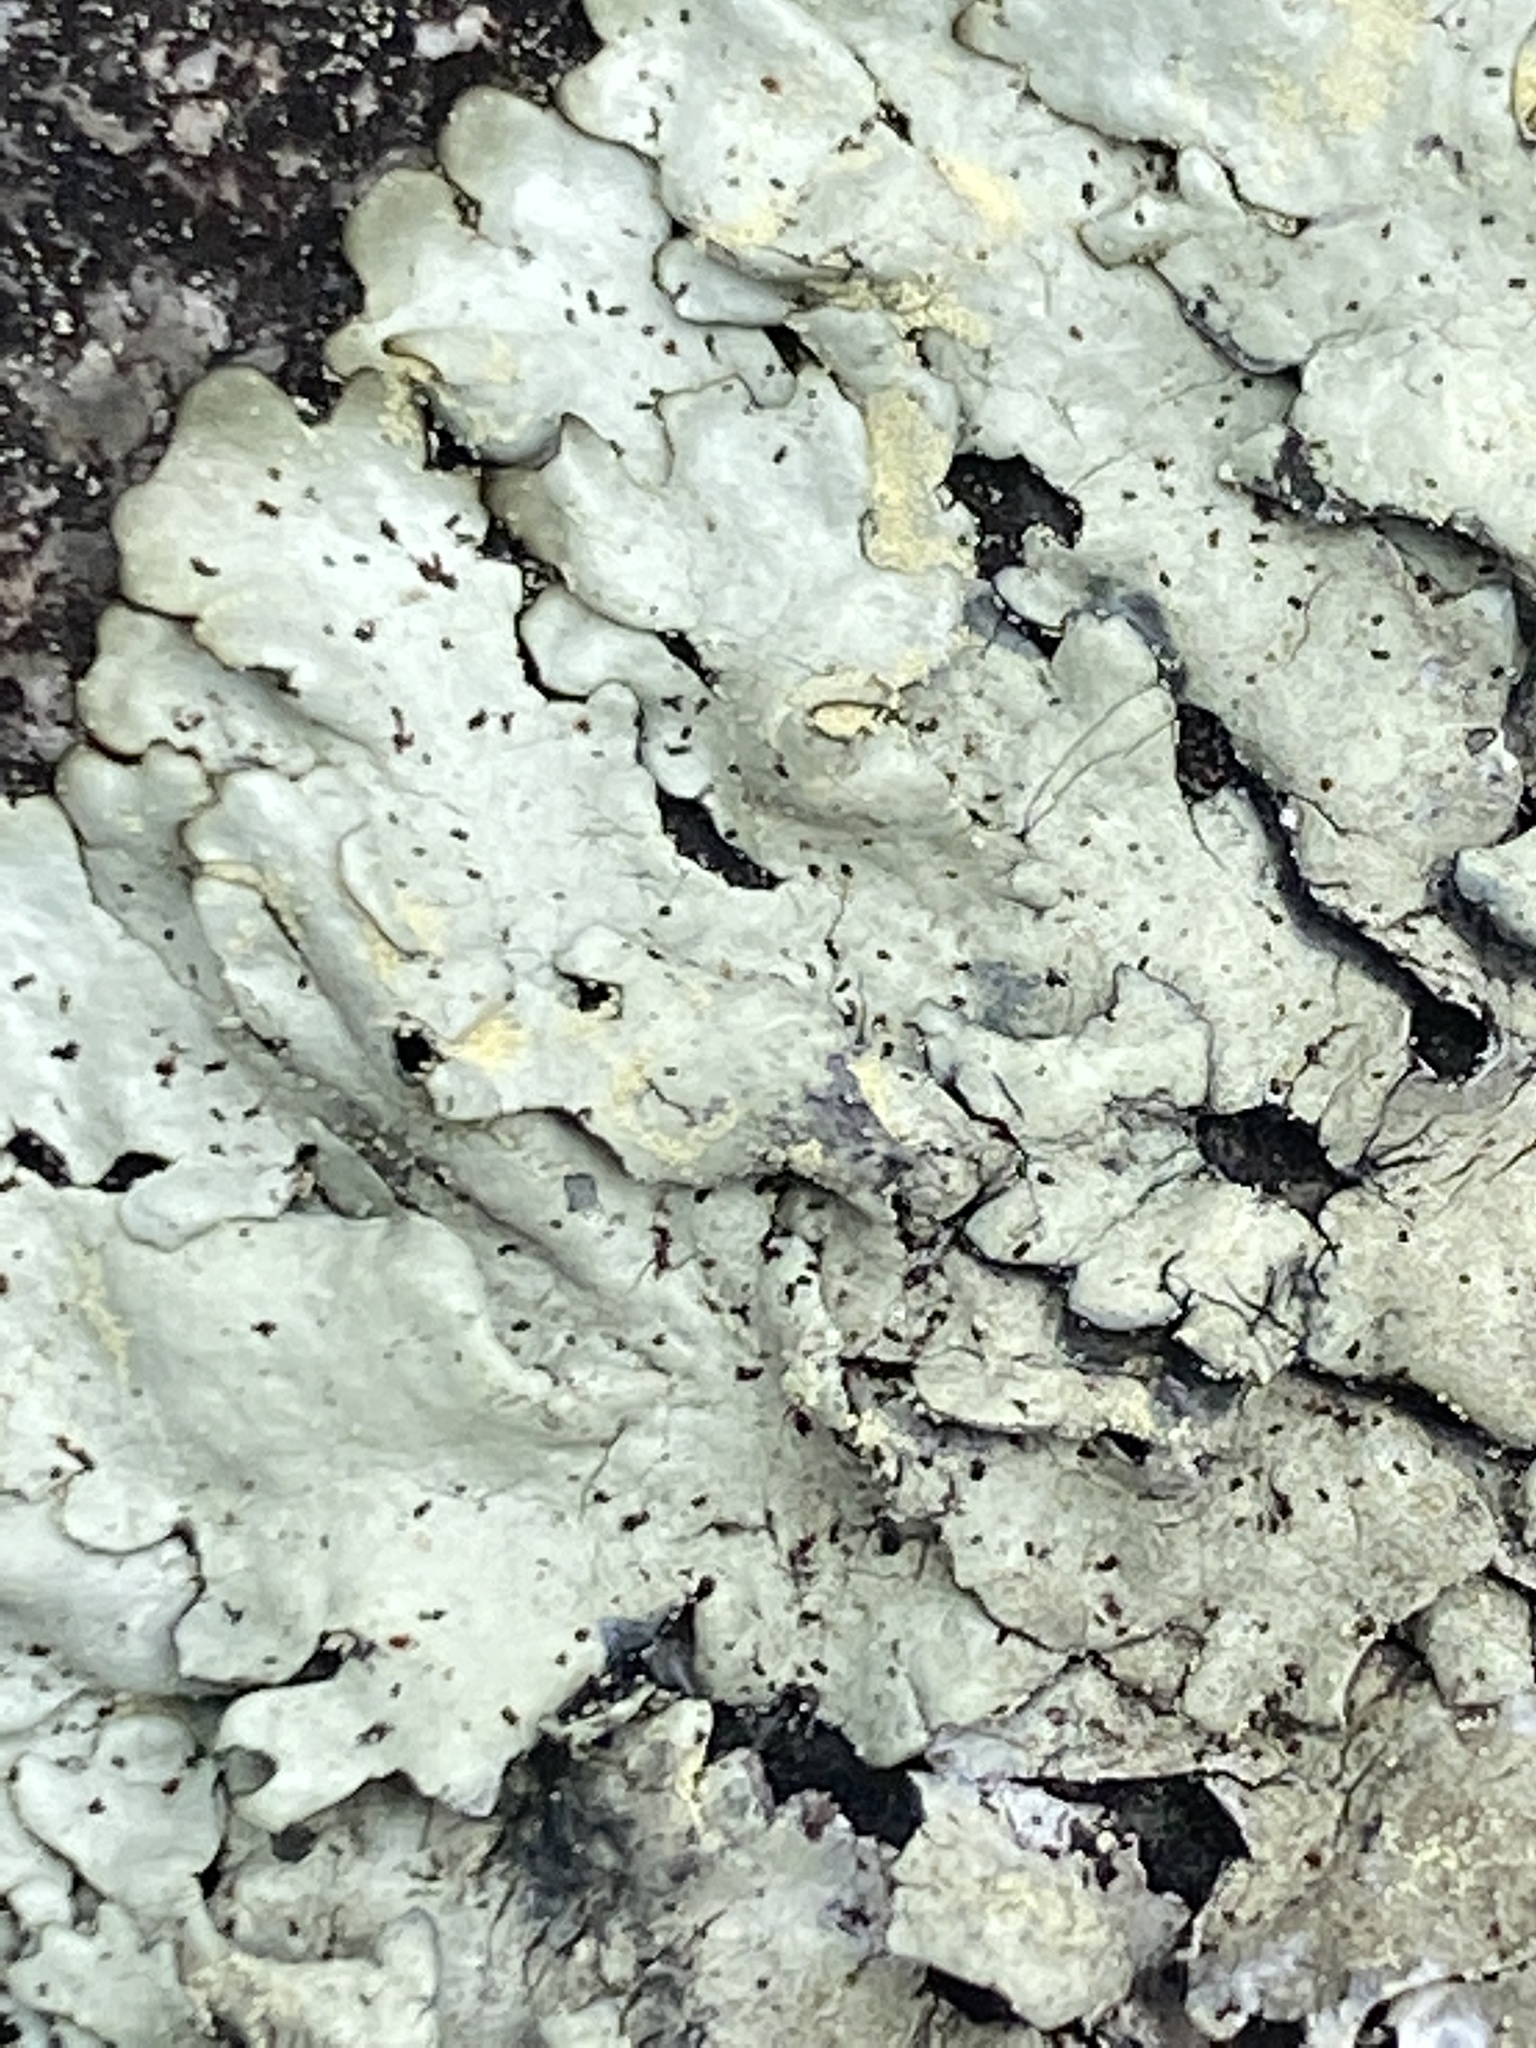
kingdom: Fungi
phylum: Ascomycota
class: Lecanoromycetes
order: Lecanorales
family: Parmeliaceae
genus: Xanthoparmelia
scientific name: Xanthoparmelia conspersa
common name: Peppered rock shield
